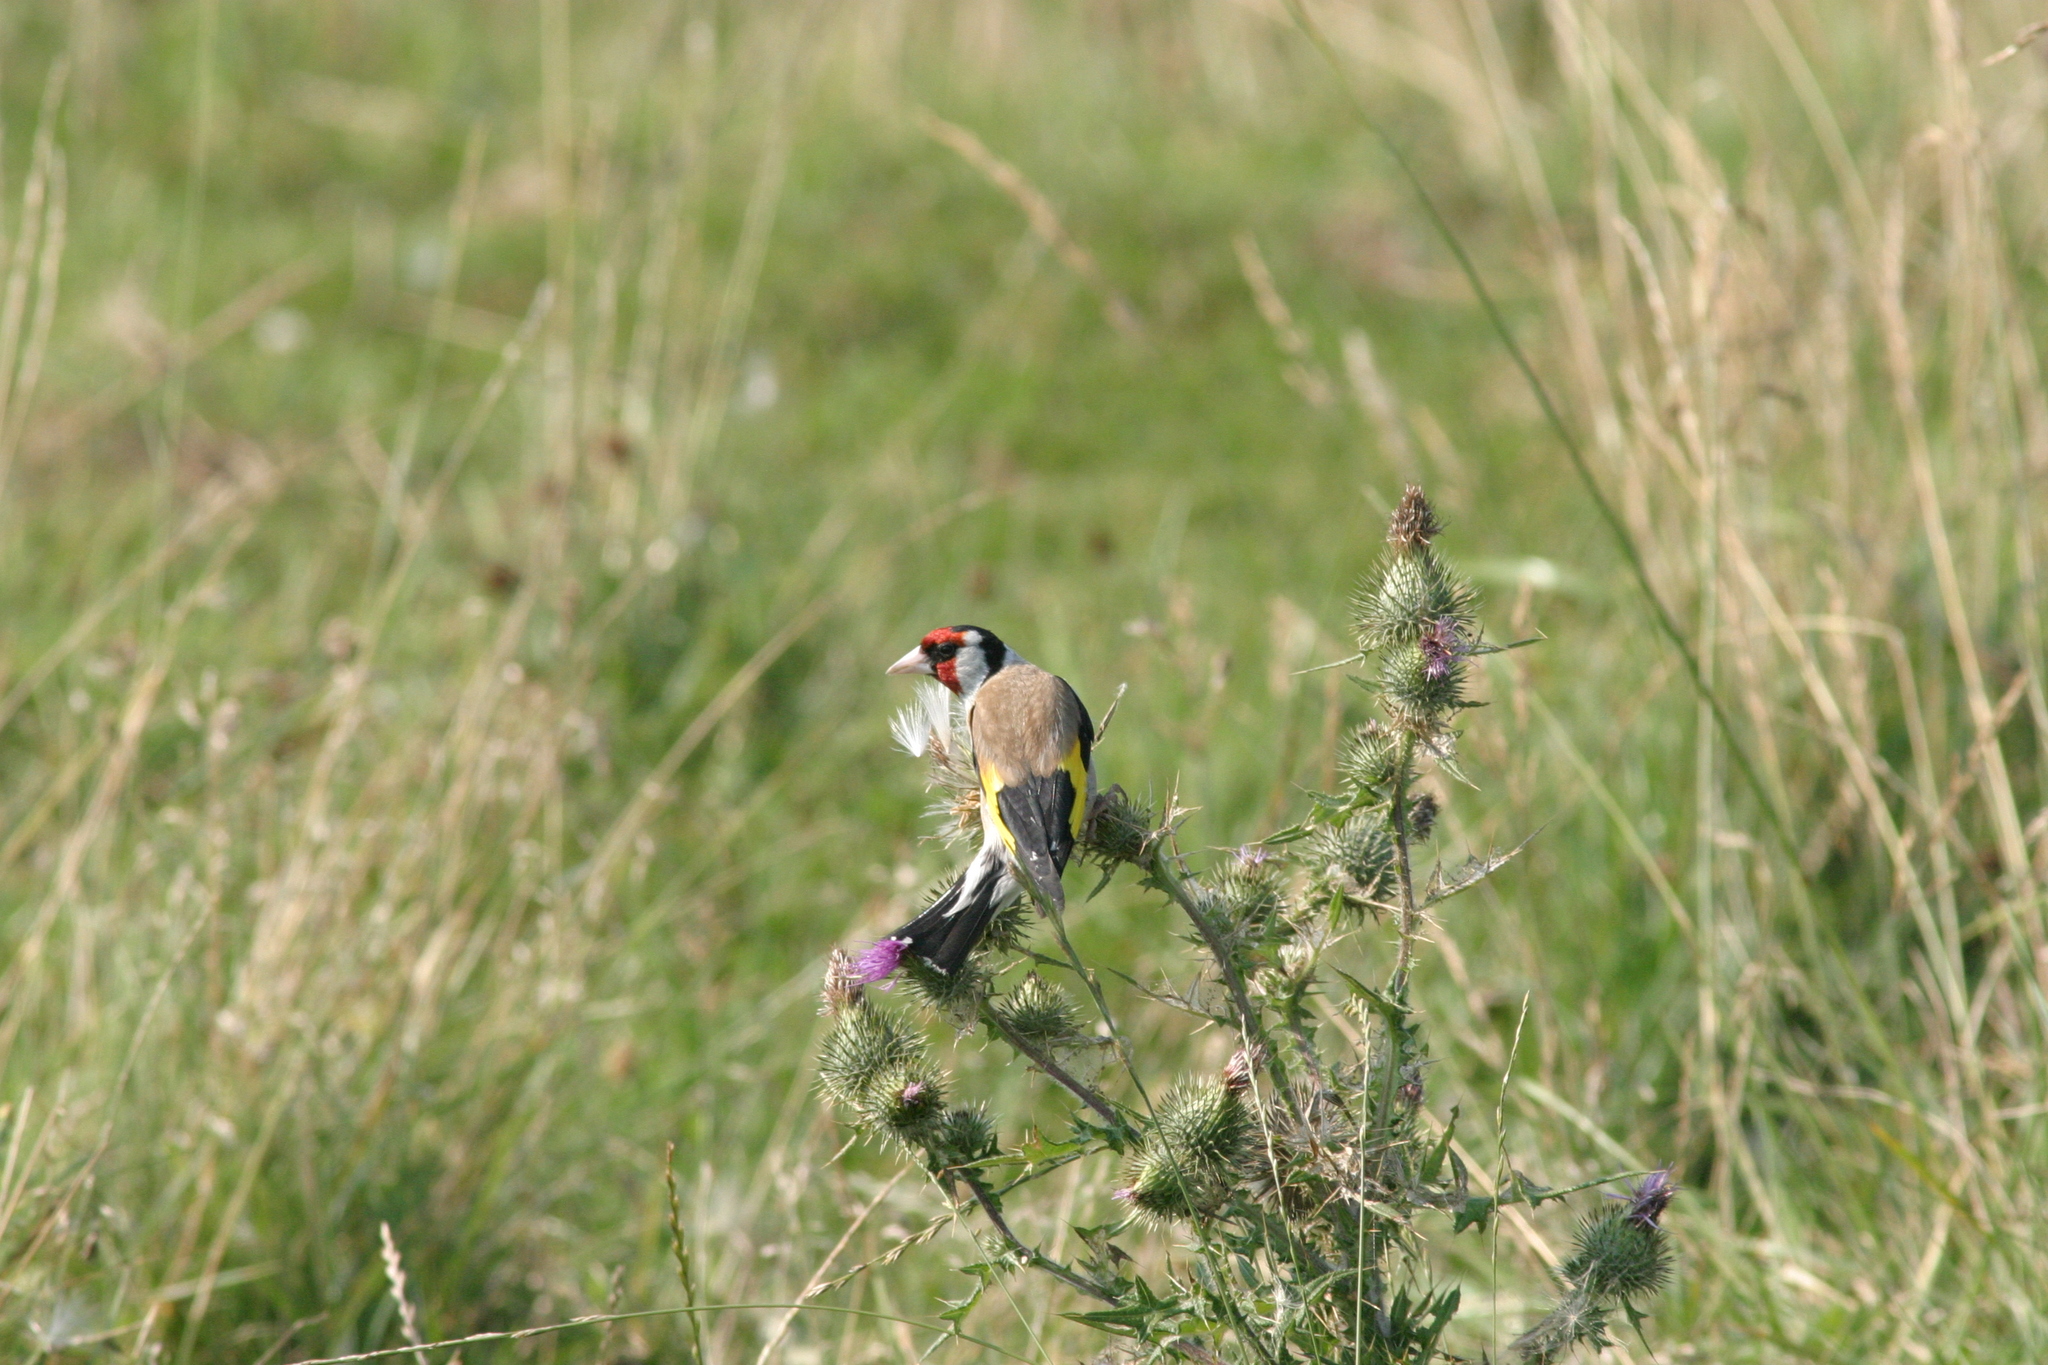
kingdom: Animalia
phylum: Chordata
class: Aves
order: Passeriformes
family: Fringillidae
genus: Carduelis
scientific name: Carduelis carduelis
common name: European goldfinch
